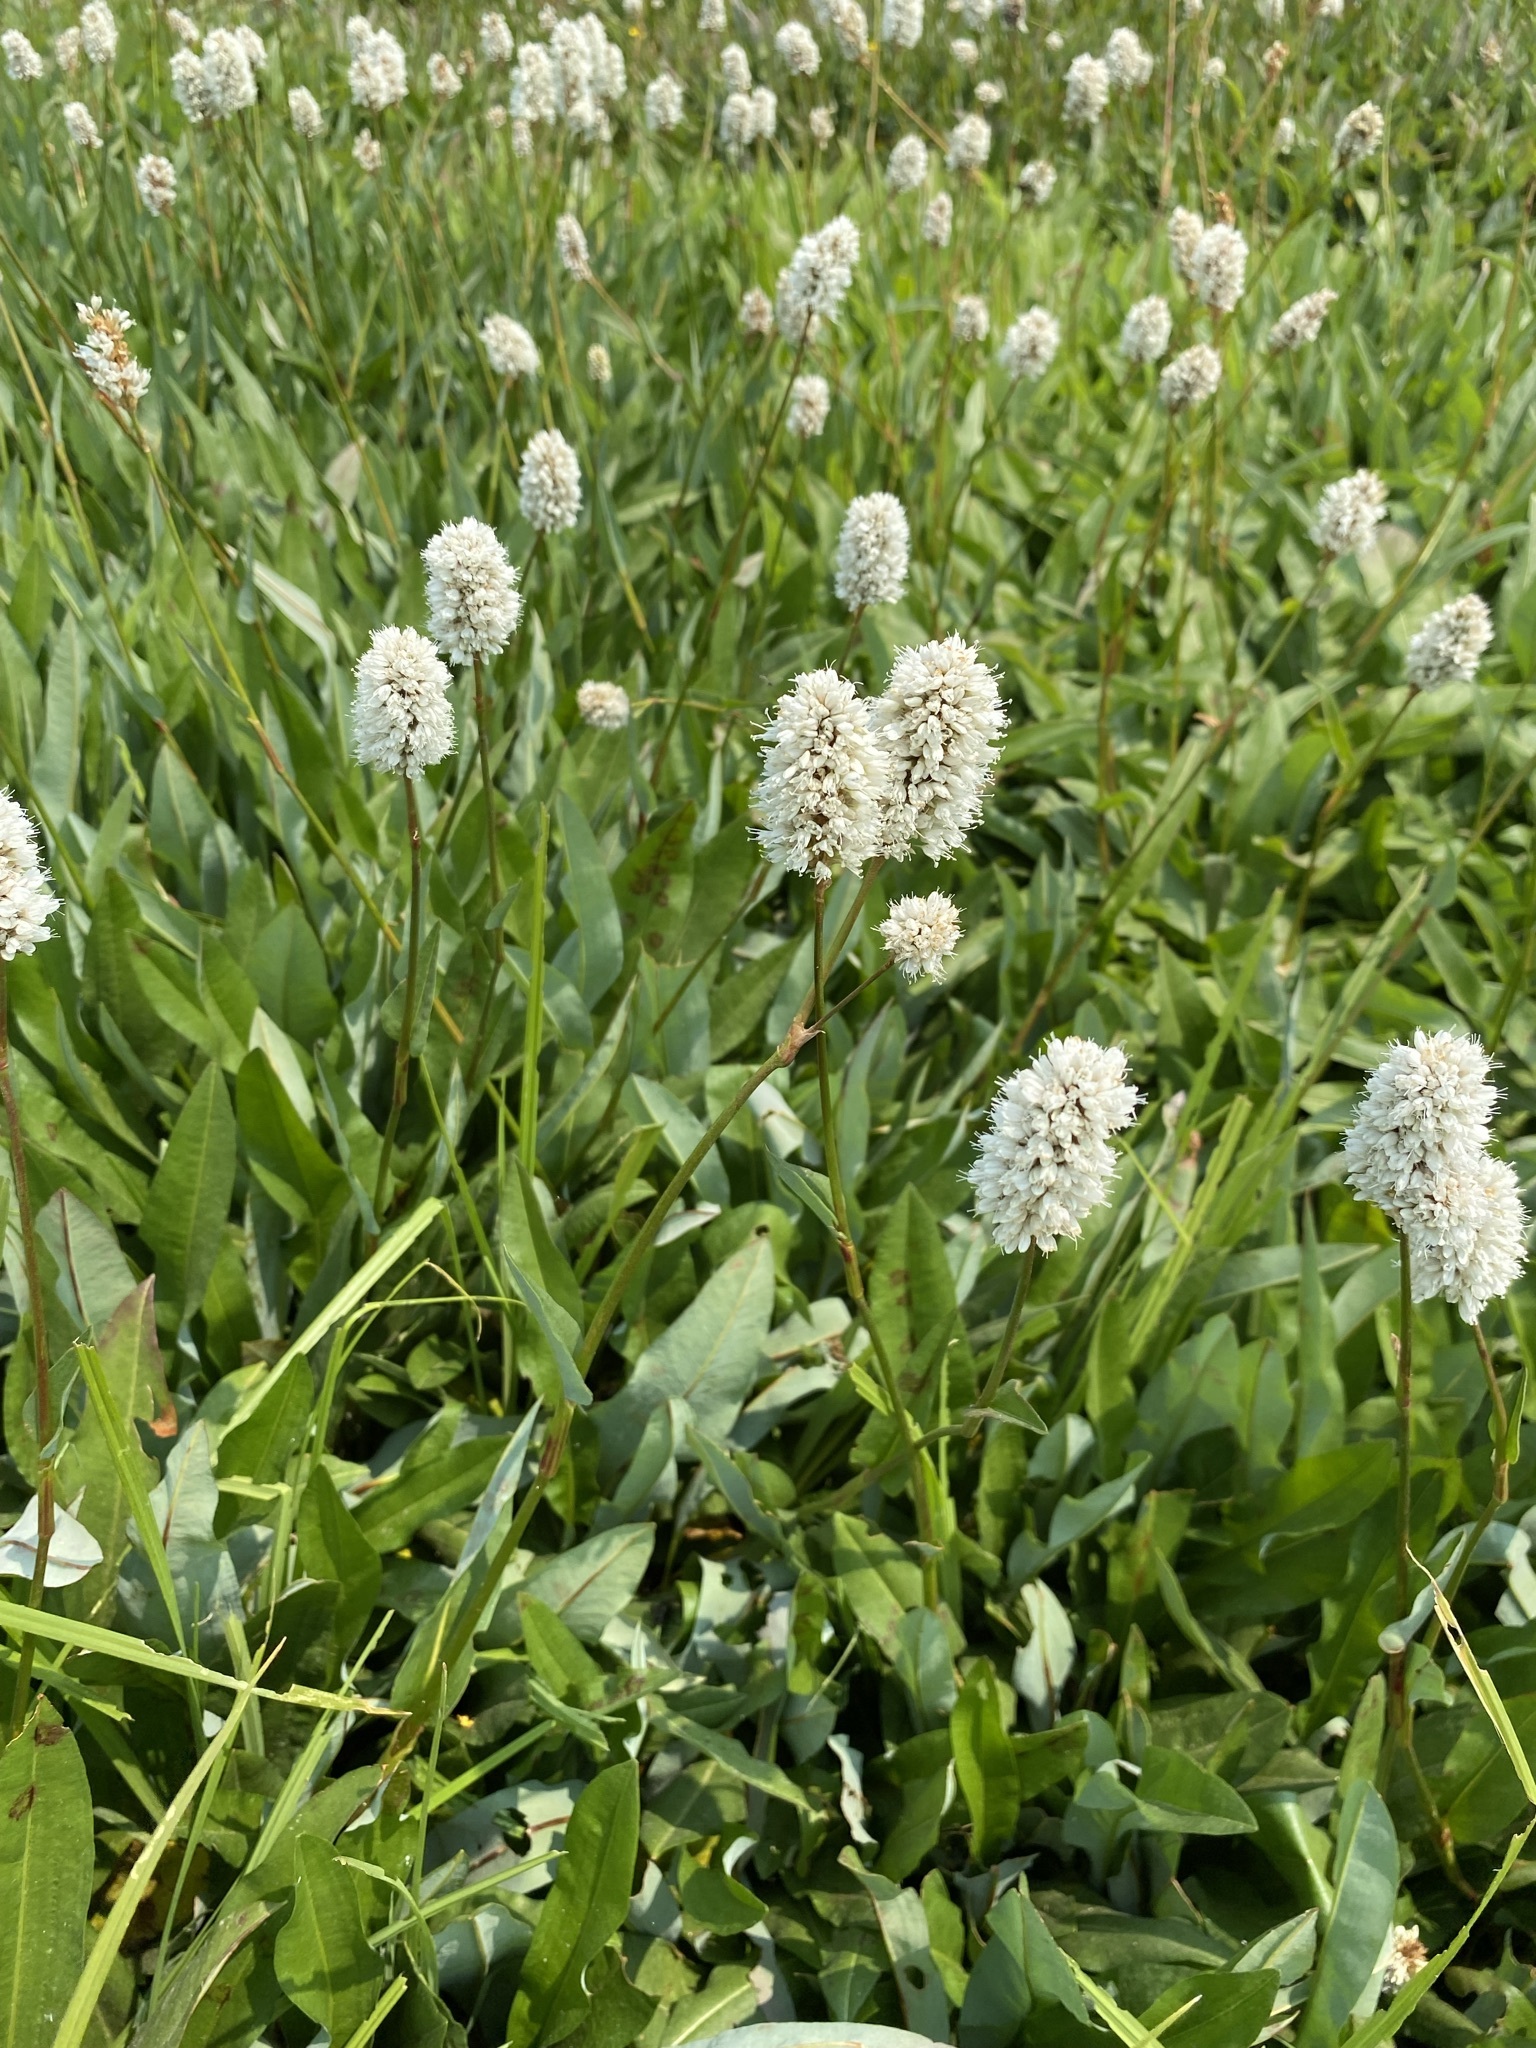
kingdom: Plantae
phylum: Tracheophyta
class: Magnoliopsida
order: Caryophyllales
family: Polygonaceae
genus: Bistorta
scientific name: Bistorta bistortoides
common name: American bistort
